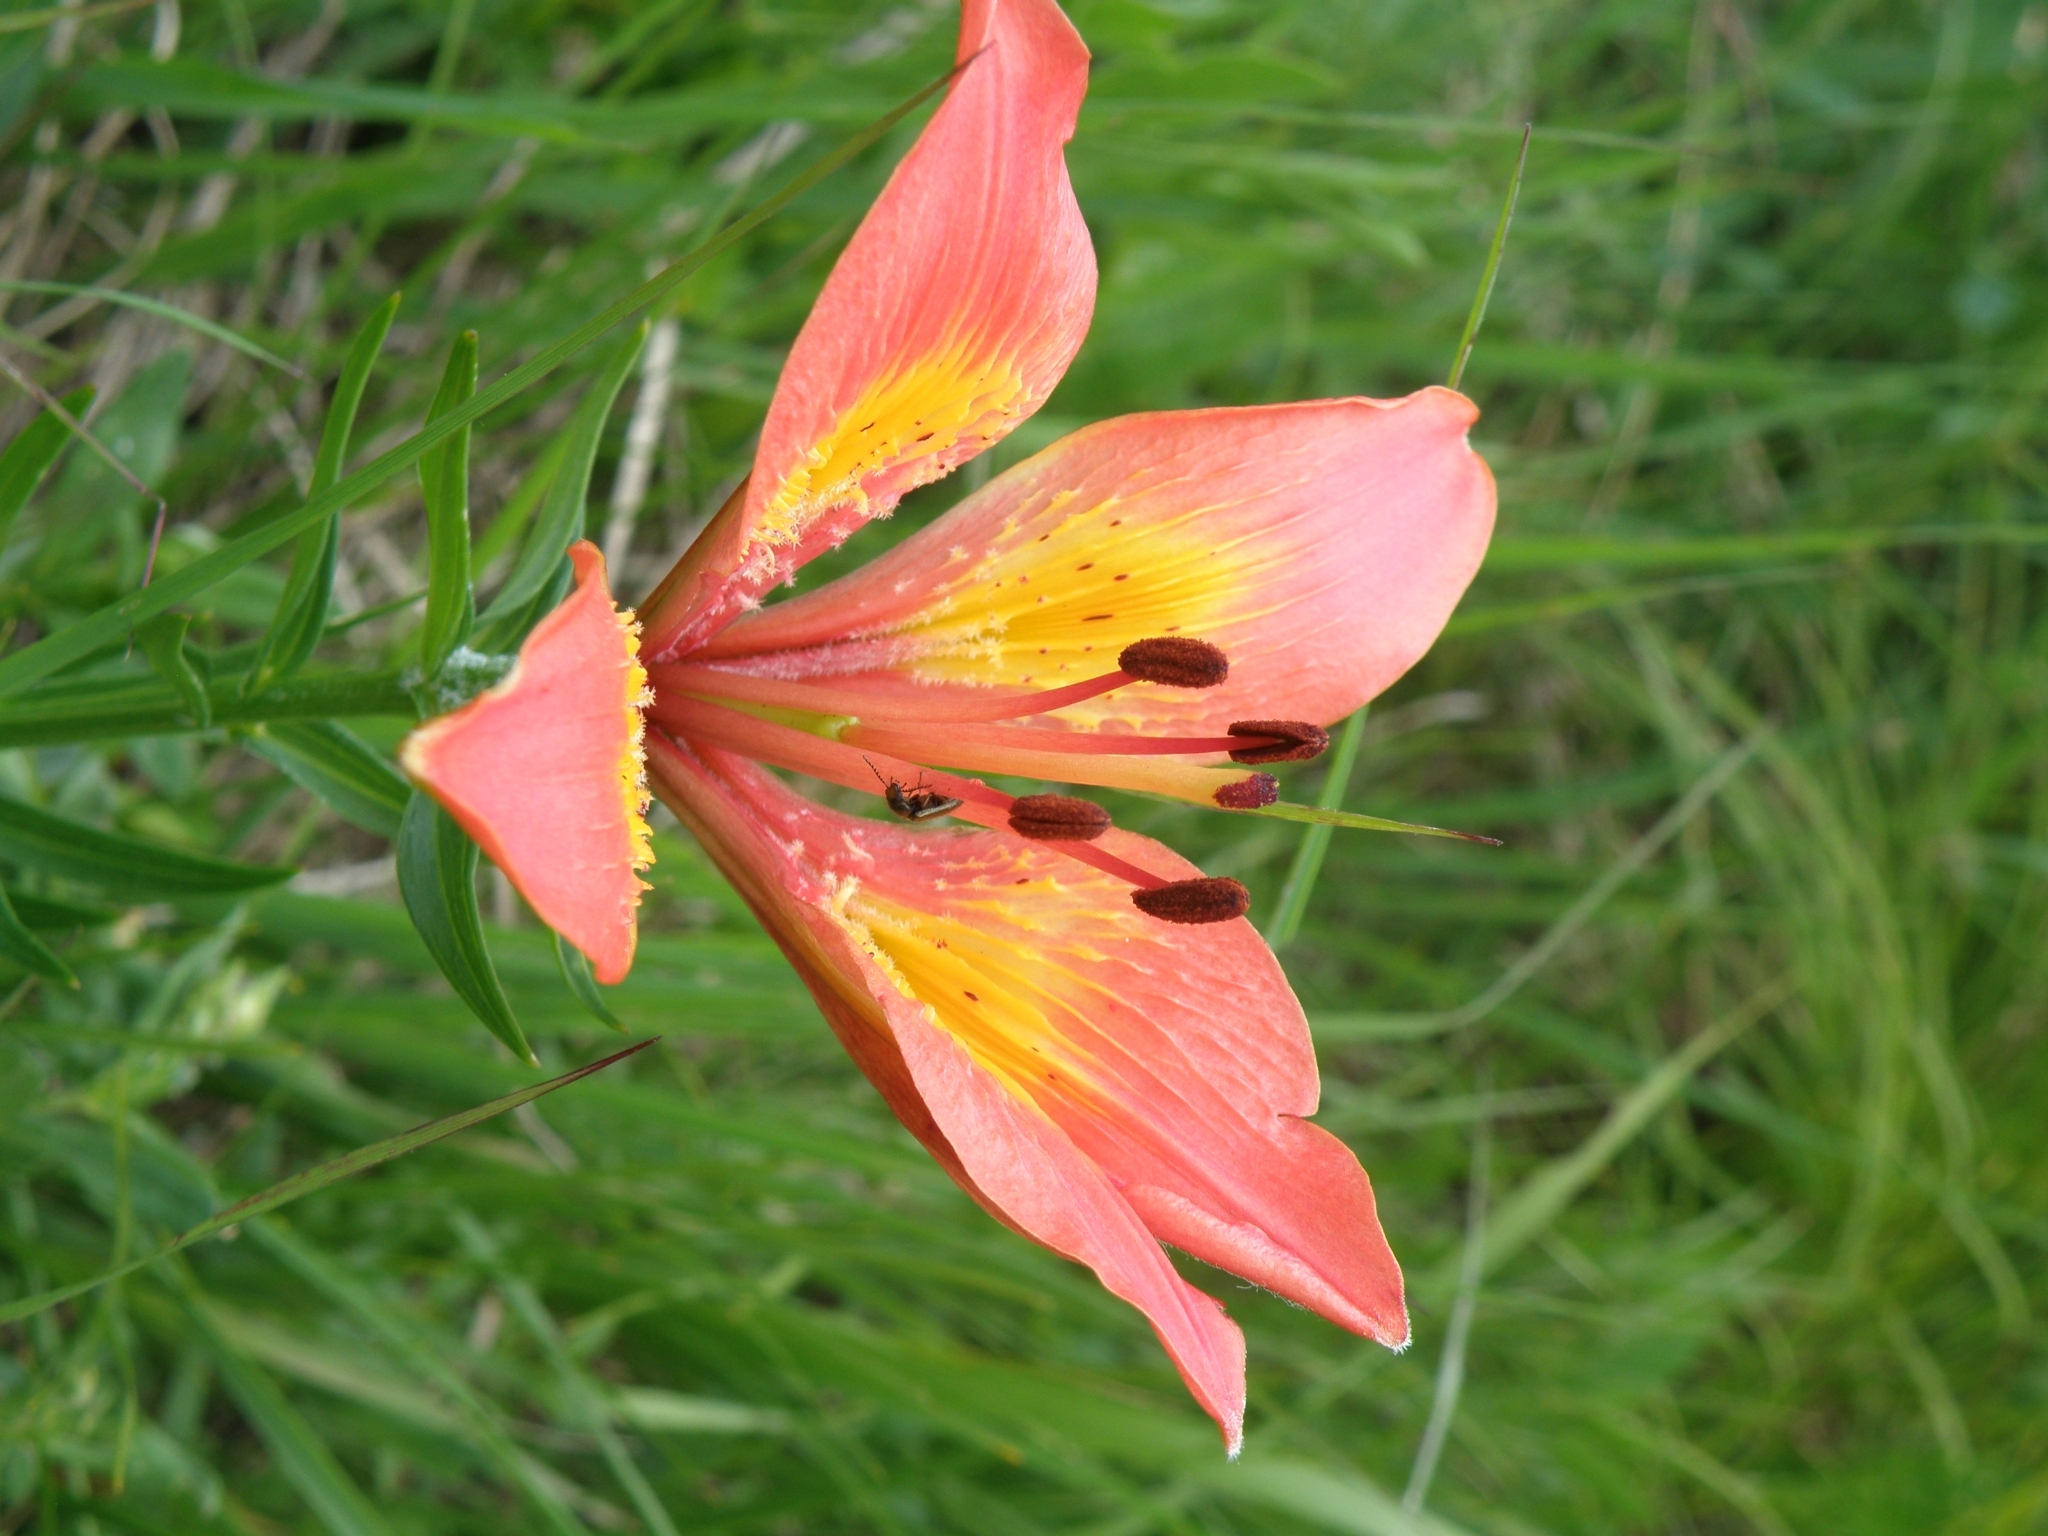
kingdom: Plantae
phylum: Tracheophyta
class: Liliopsida
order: Liliales
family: Liliaceae
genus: Lilium
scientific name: Lilium bulbiferum
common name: Orange lily
